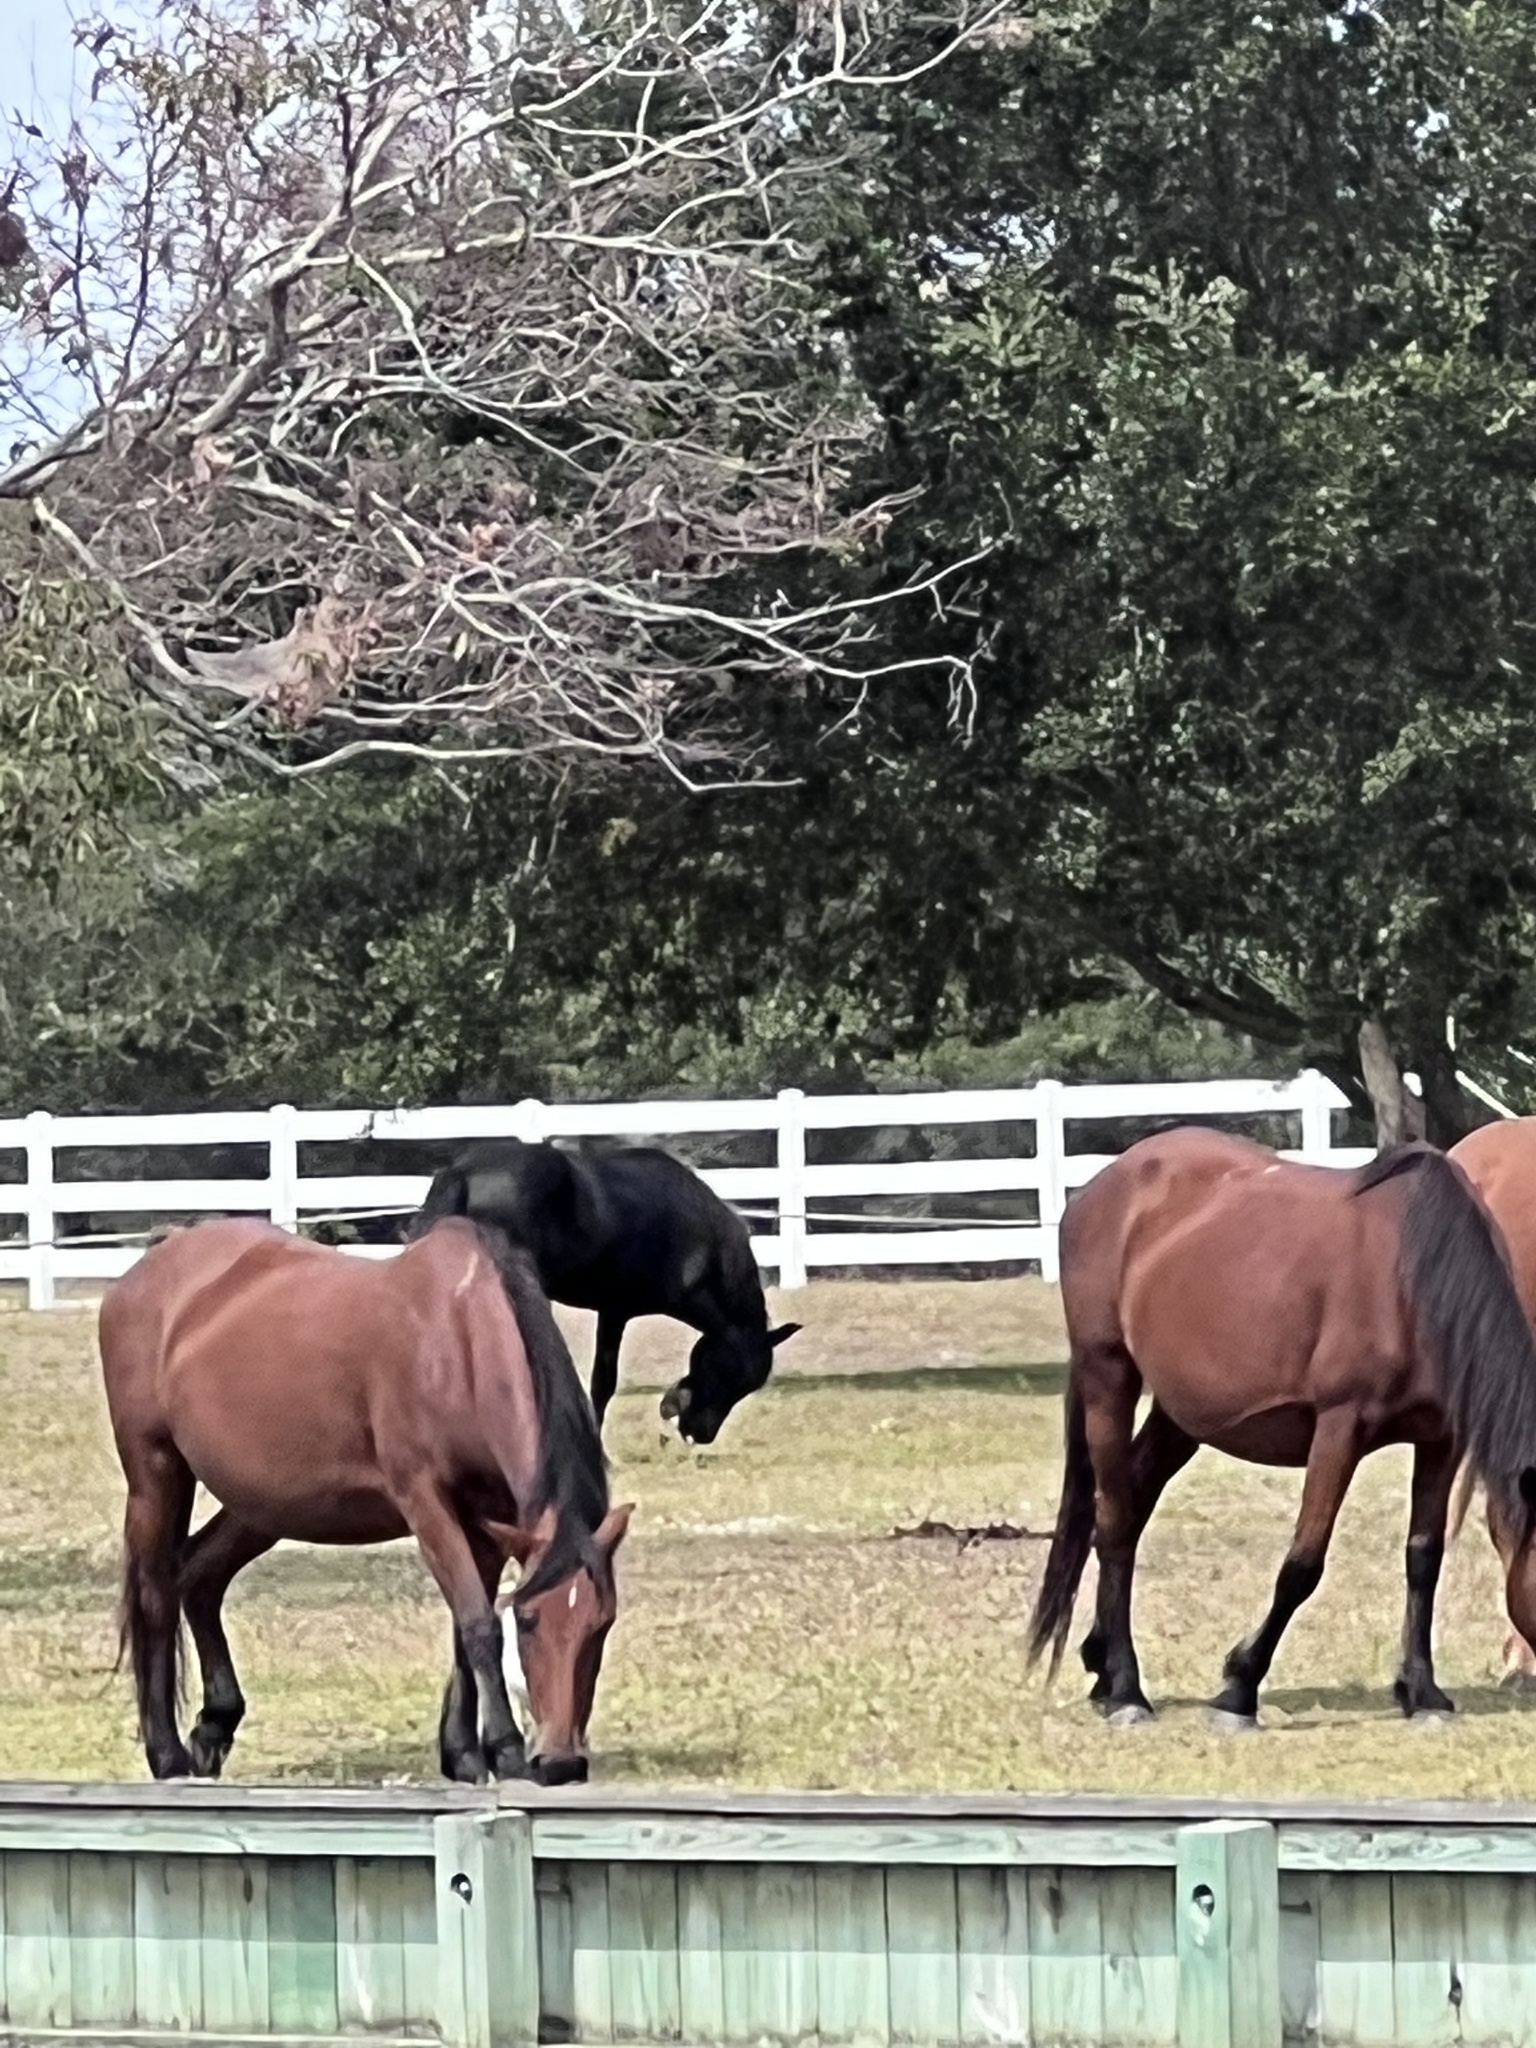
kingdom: Animalia
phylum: Chordata
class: Mammalia
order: Perissodactyla
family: Equidae
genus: Equus
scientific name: Equus caballus
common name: Horse
